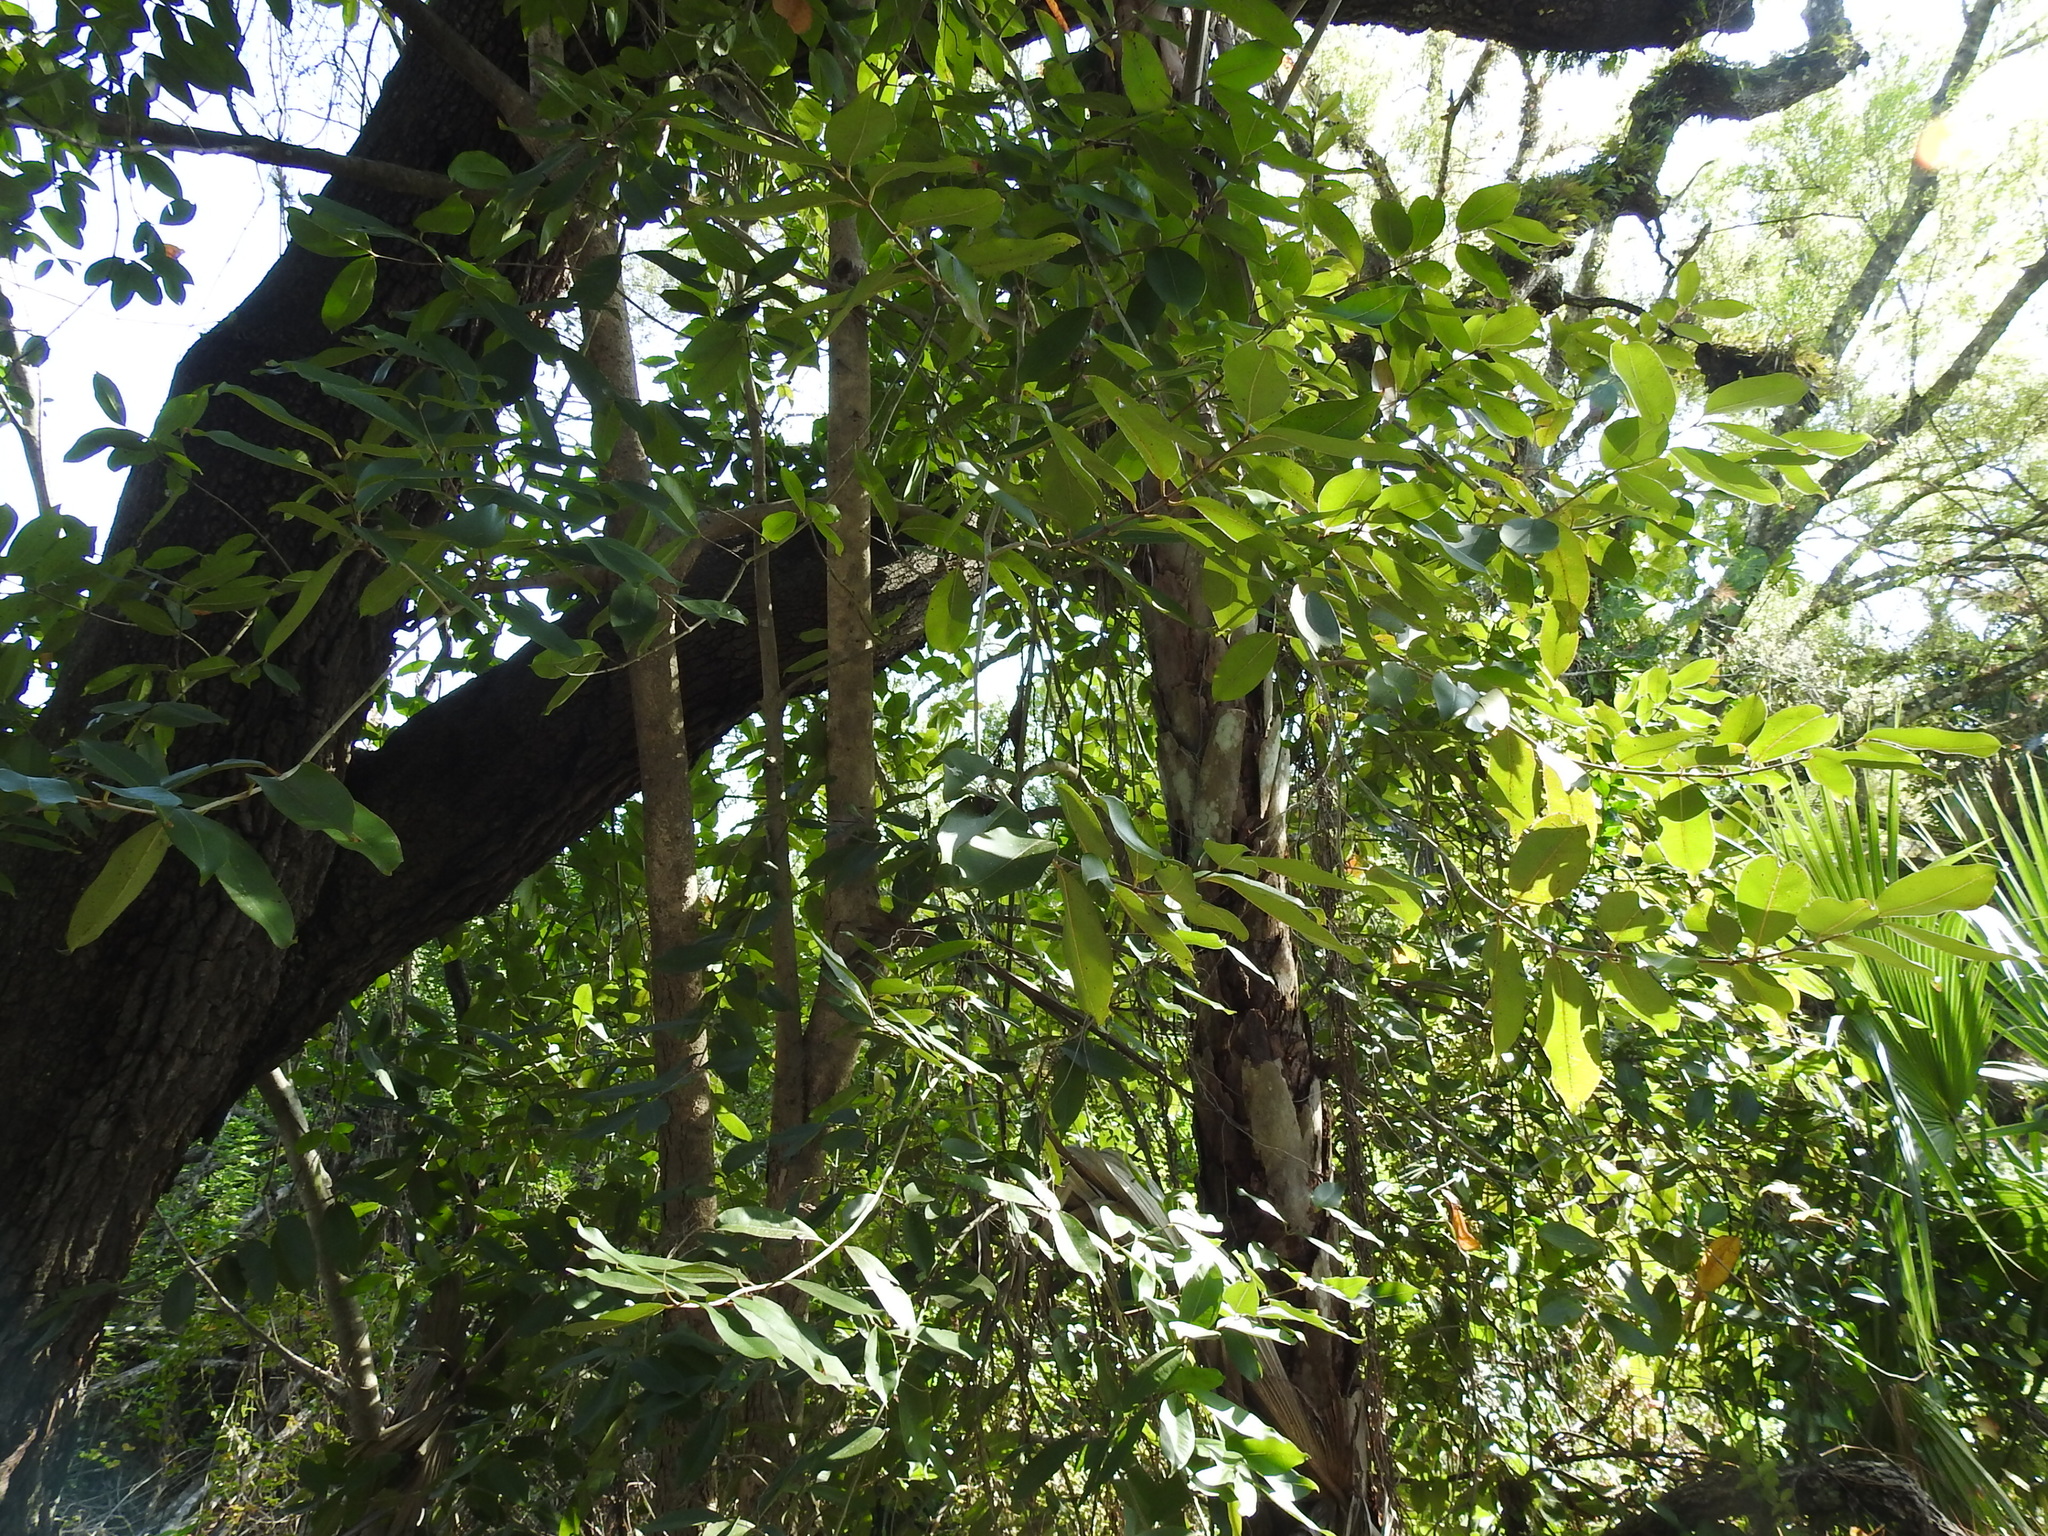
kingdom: Plantae
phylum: Tracheophyta
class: Magnoliopsida
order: Myrtales
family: Myrtaceae
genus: Syzygium
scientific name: Syzygium cumini
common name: Java plum
